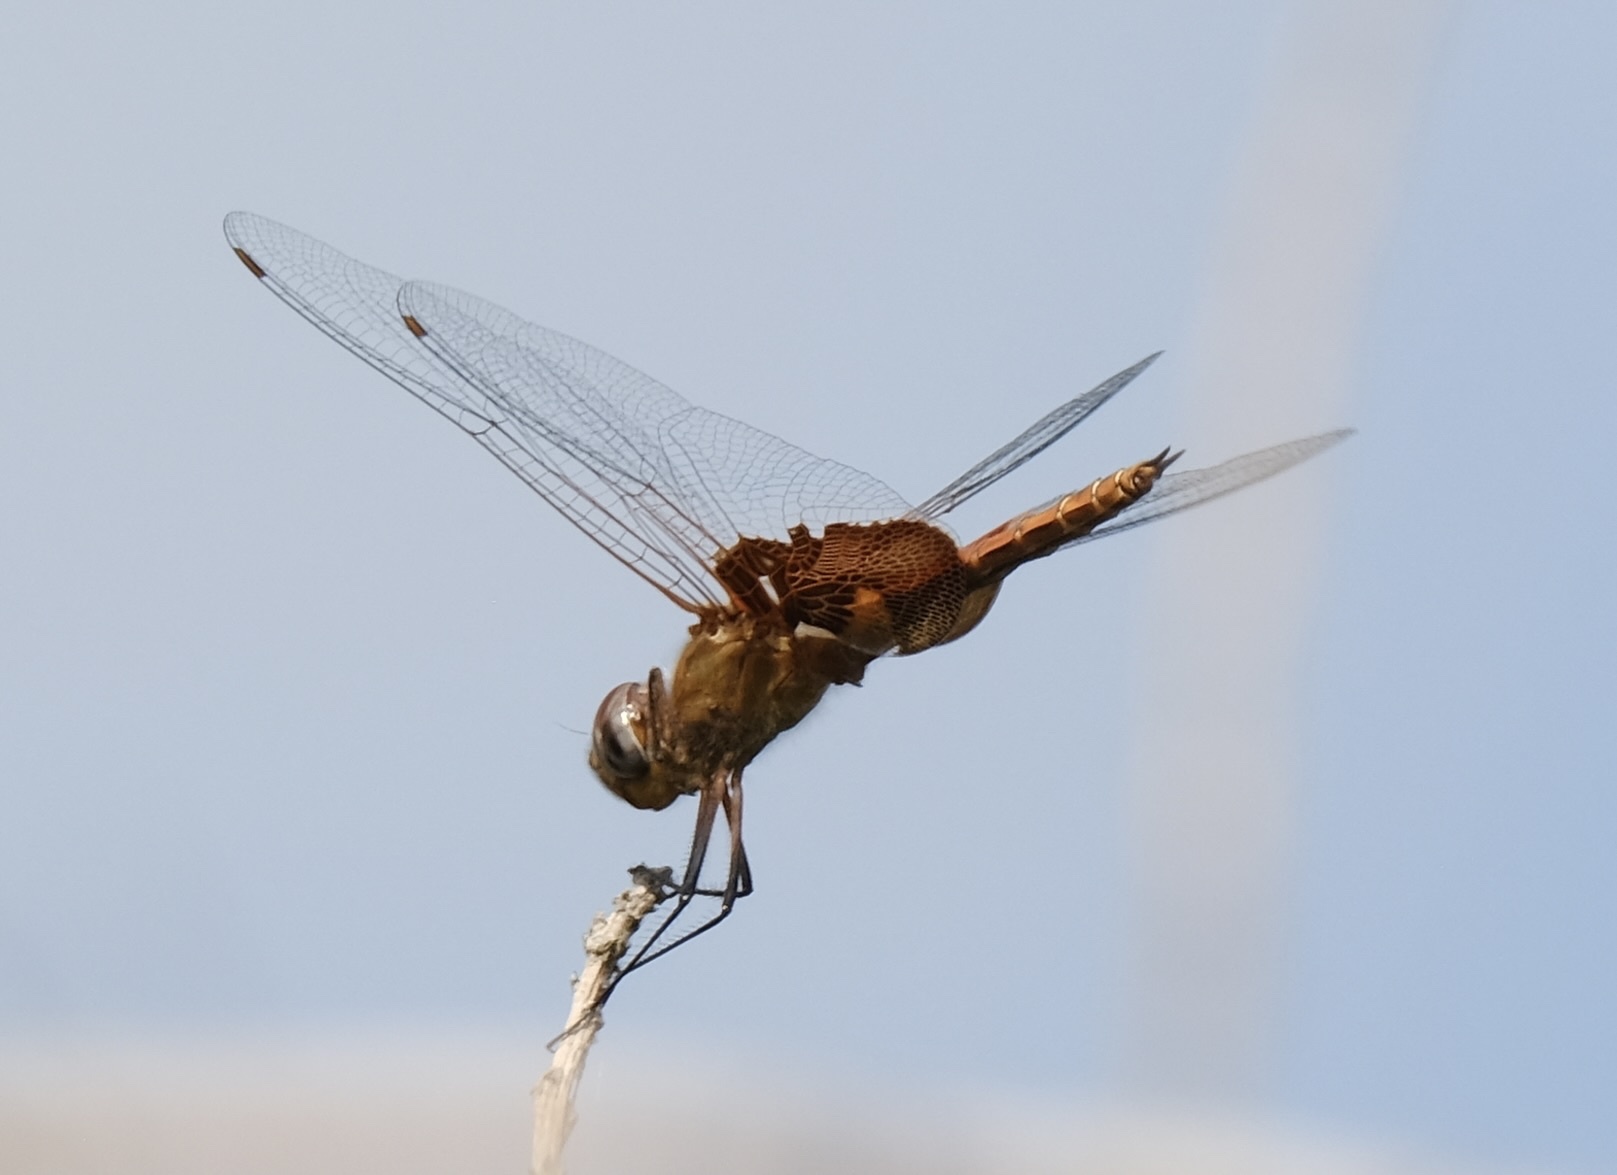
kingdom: Animalia
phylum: Arthropoda
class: Insecta
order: Odonata
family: Libellulidae
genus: Tramea
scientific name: Tramea onusta
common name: Red saddlebags
